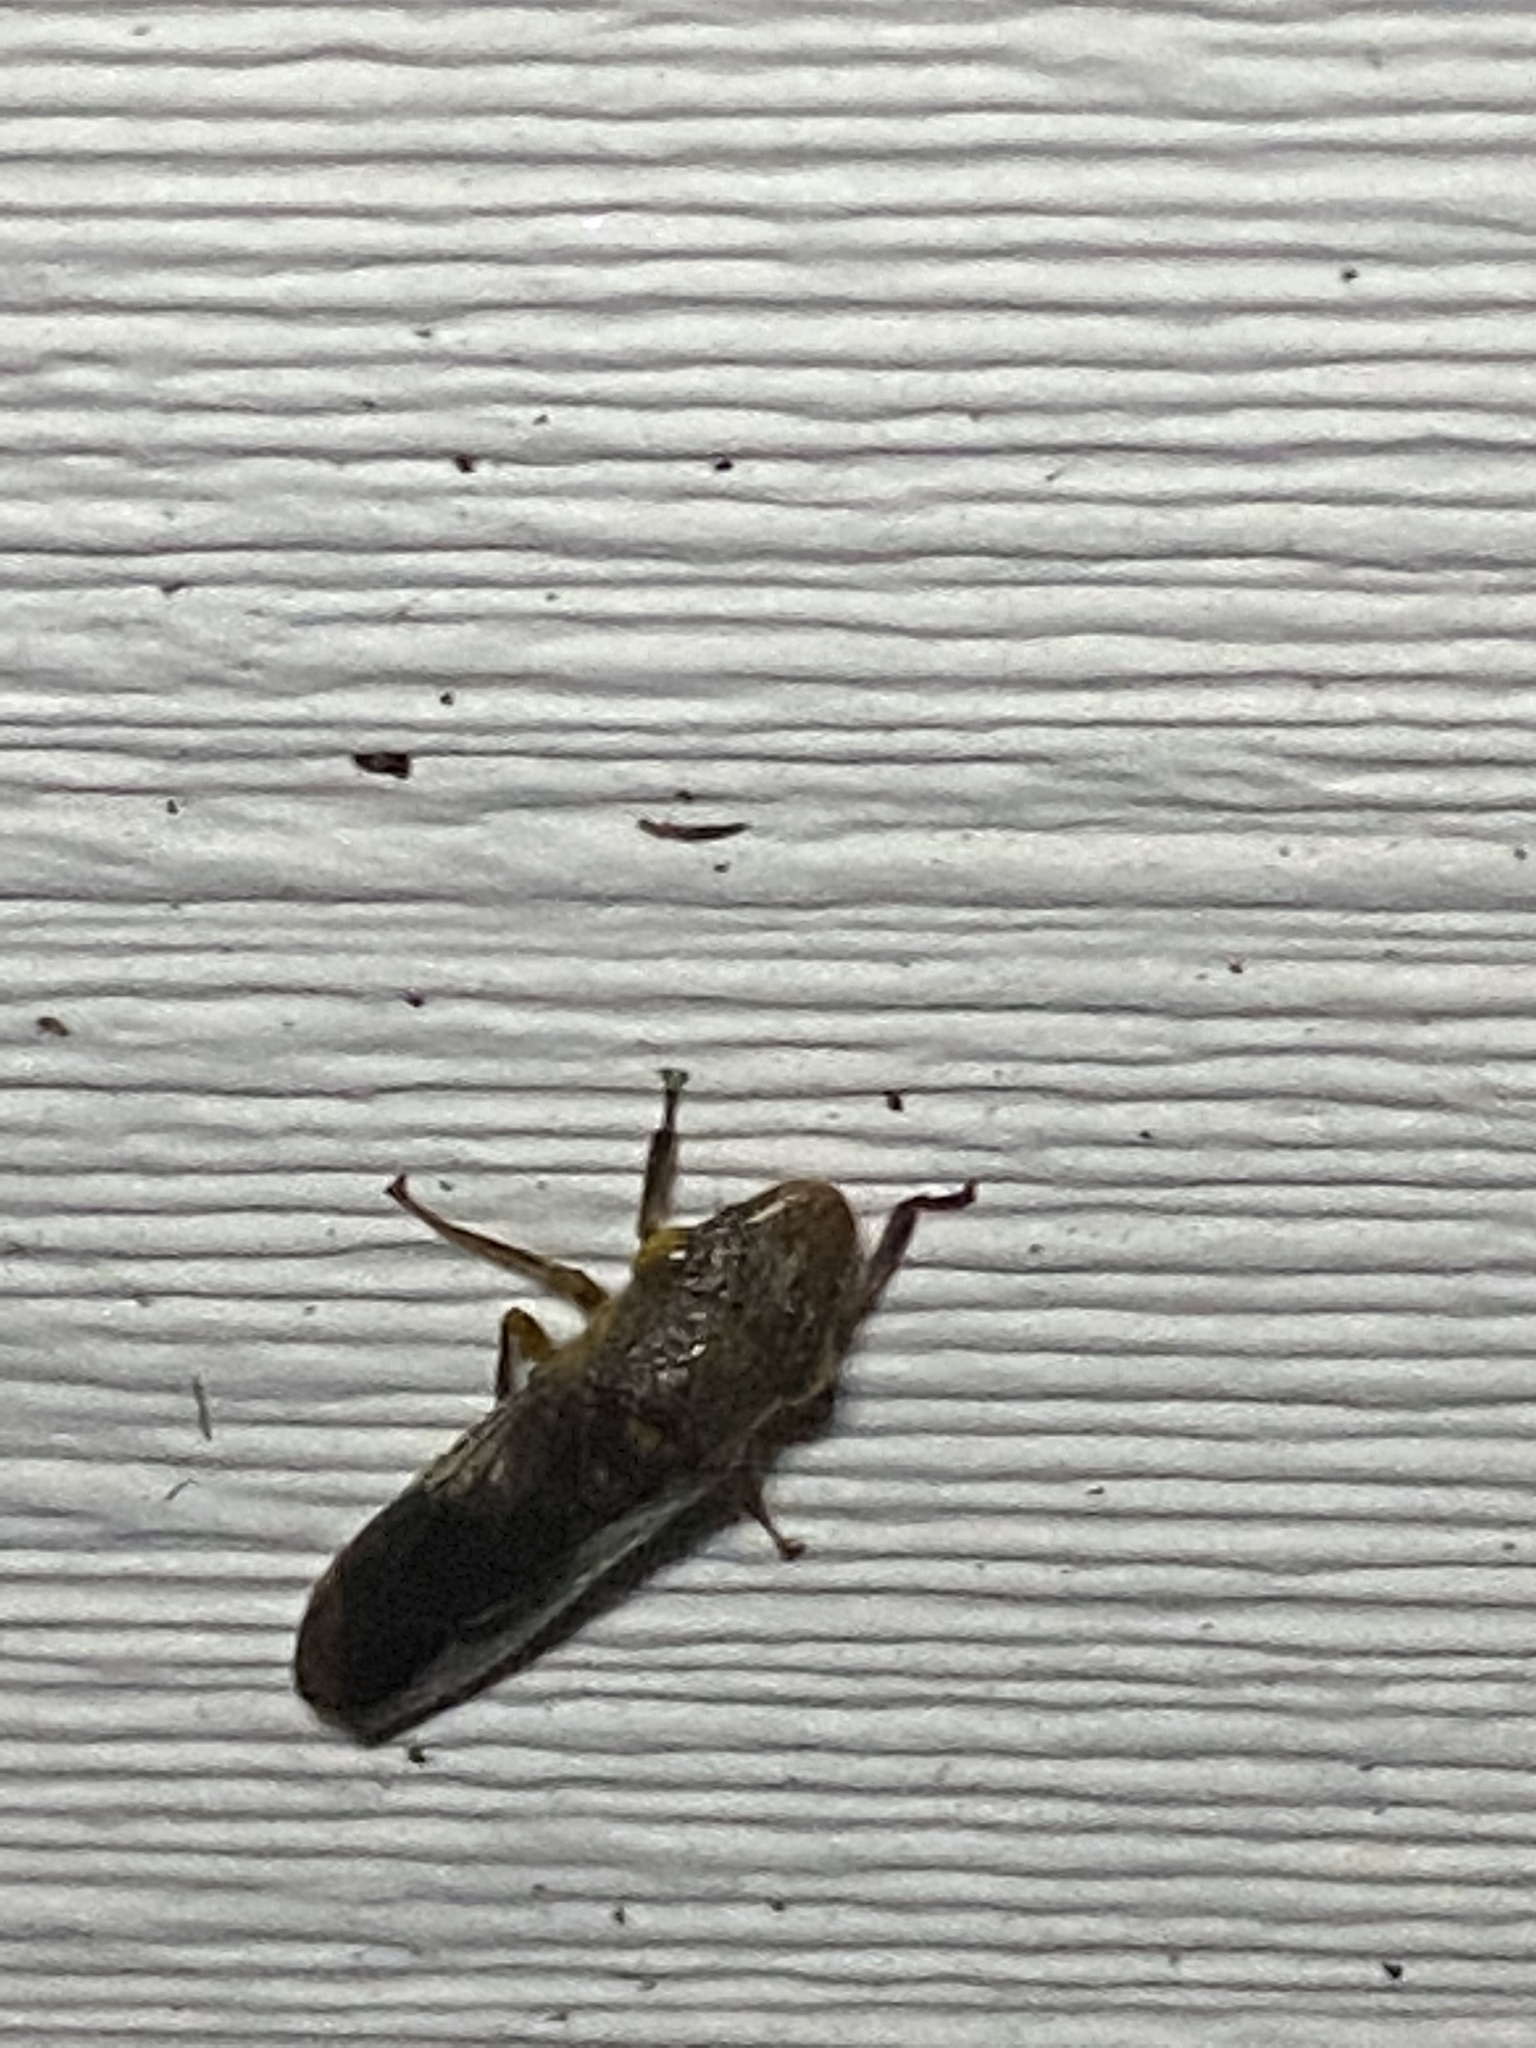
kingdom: Animalia
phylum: Arthropoda
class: Insecta
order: Hemiptera
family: Cicadellidae
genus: Homalodisca
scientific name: Homalodisca vitripennis
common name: Glassy-winged sharpshooter
